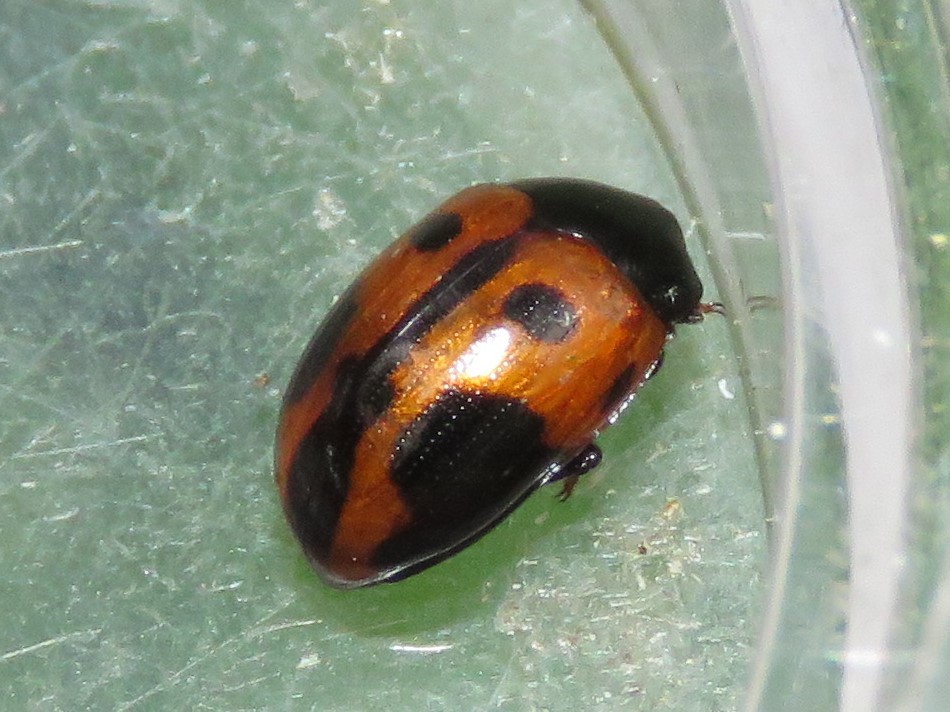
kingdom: Animalia
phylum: Arthropoda
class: Insecta
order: Coleoptera
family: Tenebrionidae
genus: Diaperis
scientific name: Diaperis maculata
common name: Darkling beetle
